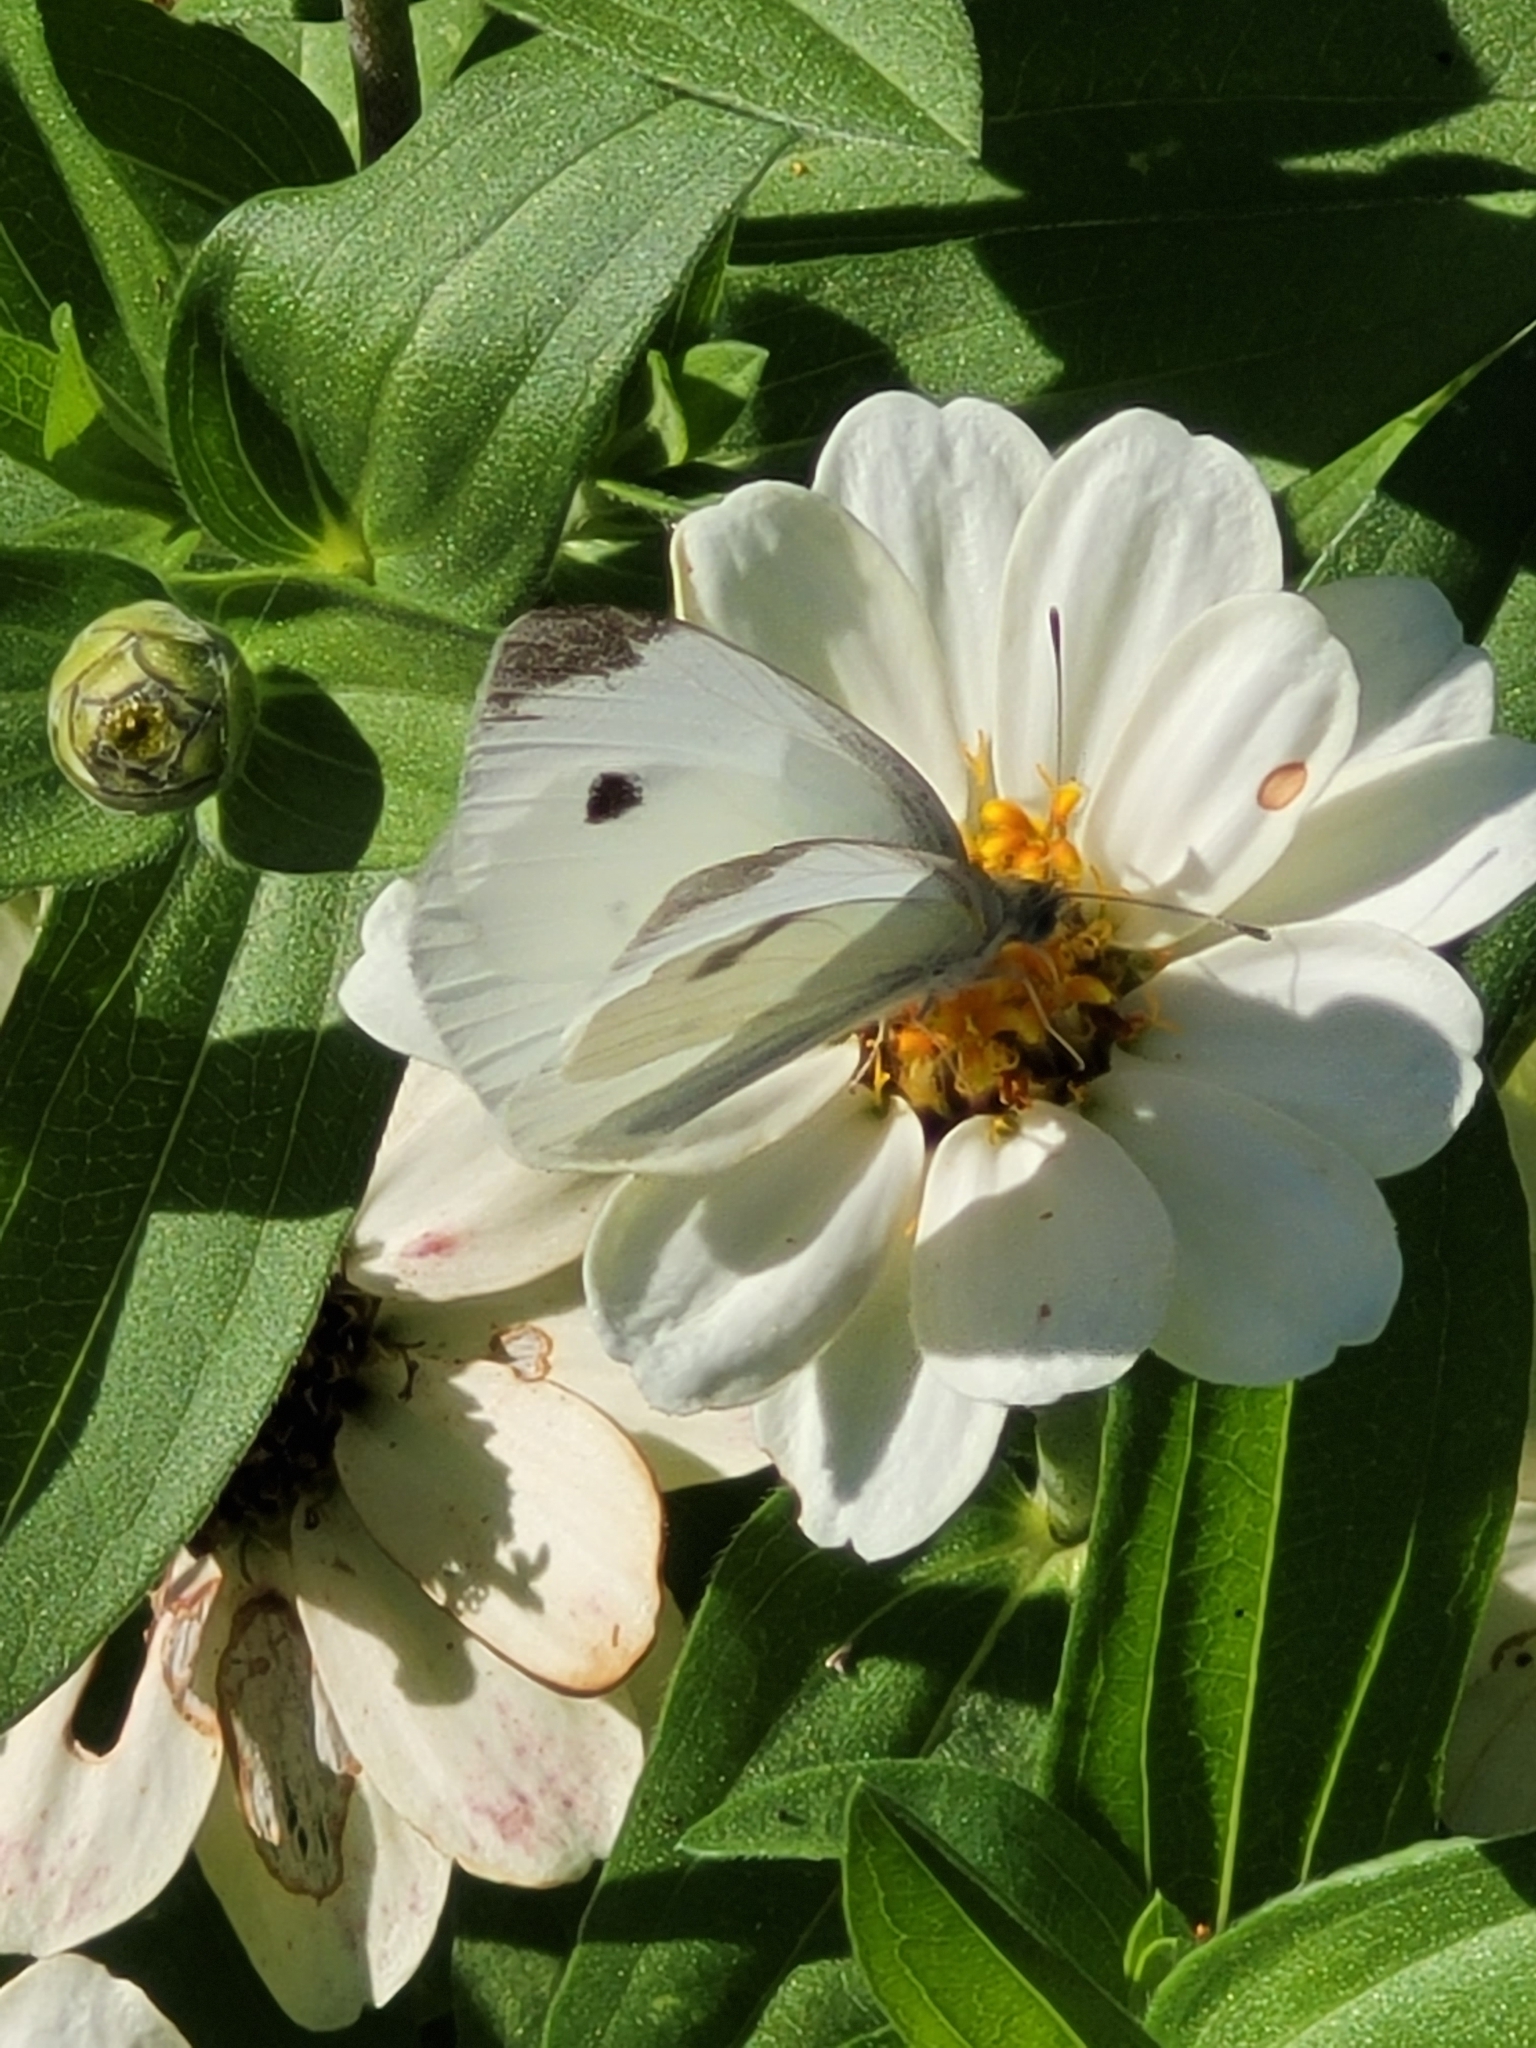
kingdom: Animalia
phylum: Arthropoda
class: Insecta
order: Lepidoptera
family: Pieridae
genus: Pieris
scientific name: Pieris rapae
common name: Small white
